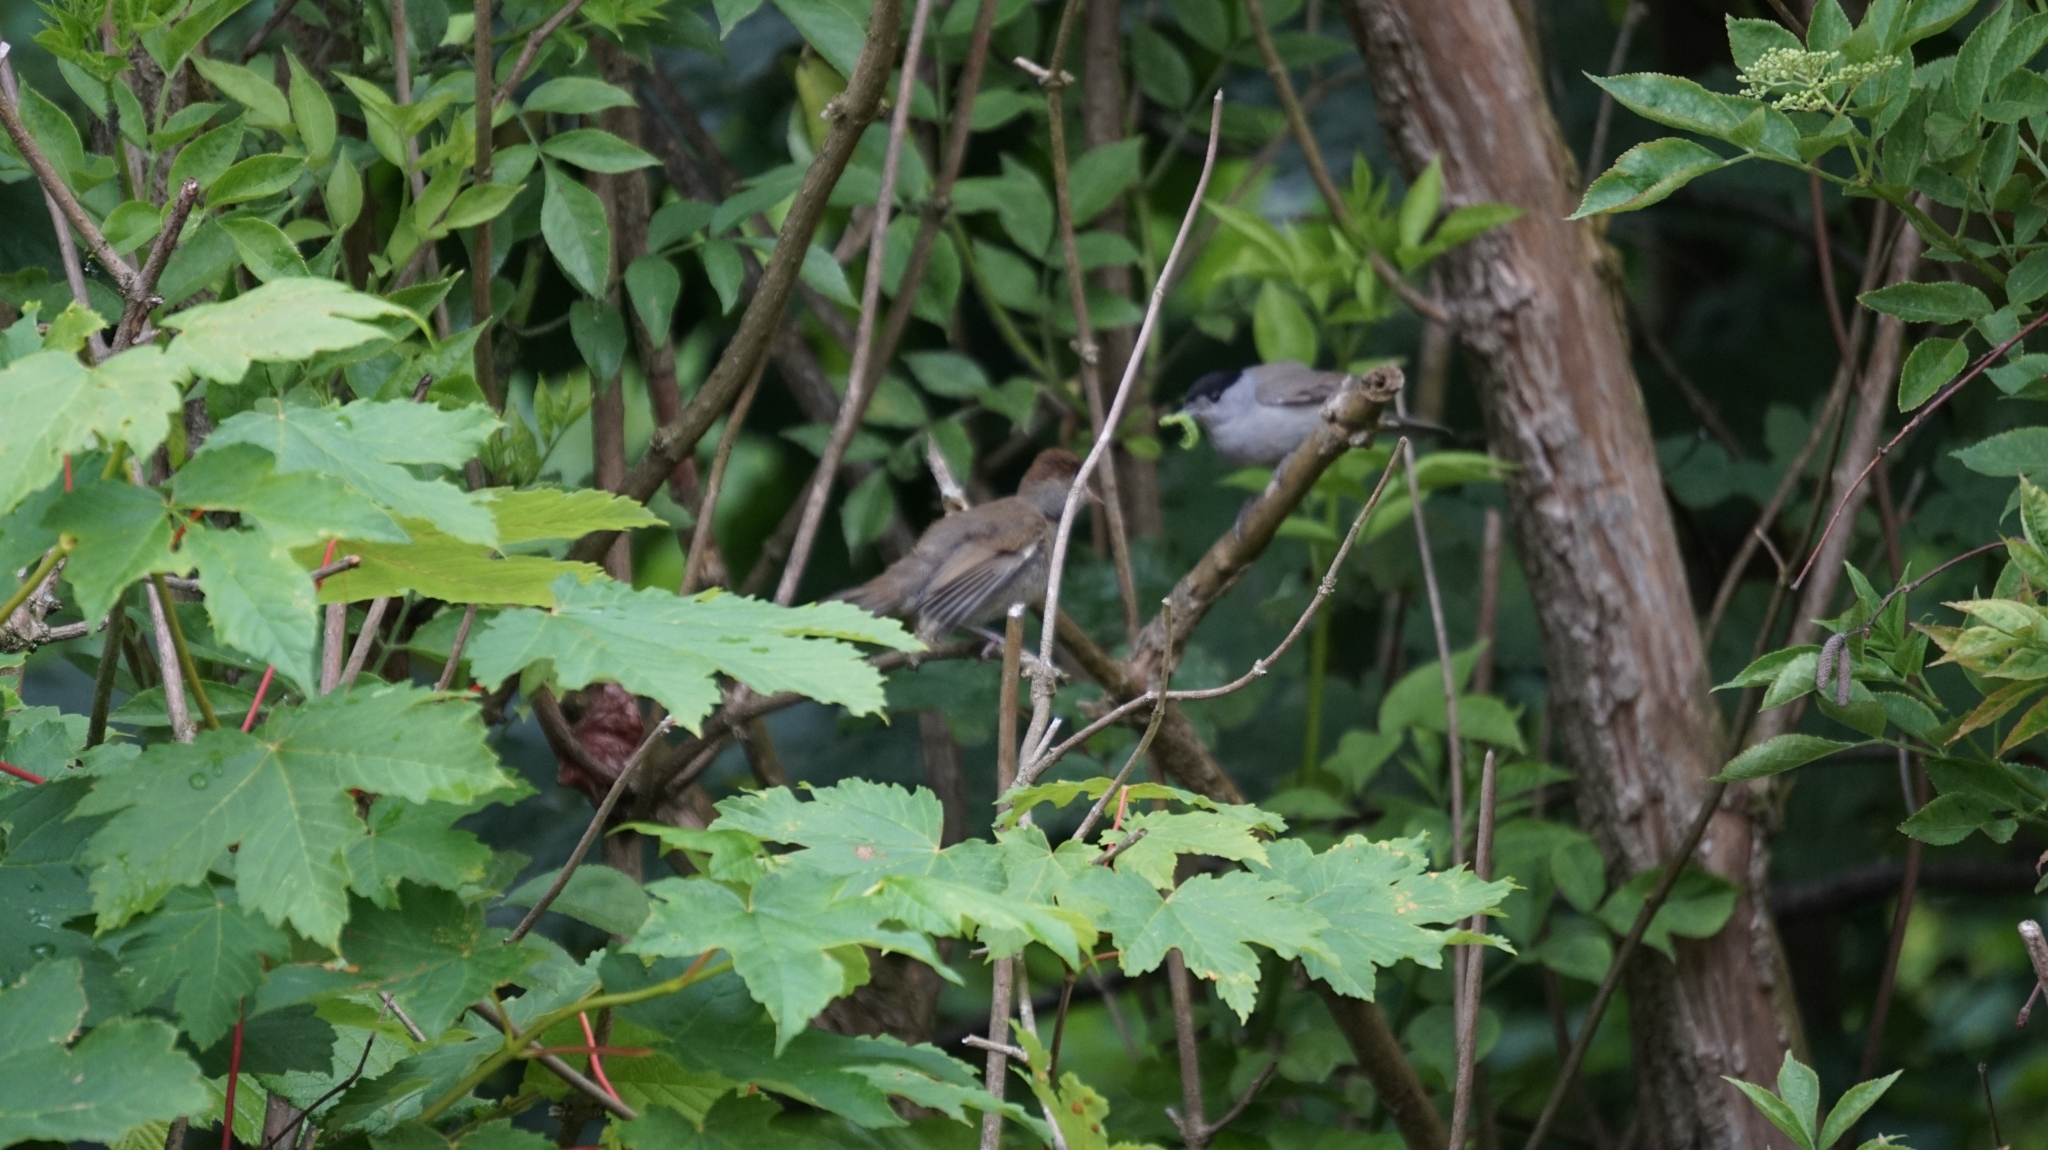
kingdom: Animalia
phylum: Chordata
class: Aves
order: Passeriformes
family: Sylviidae
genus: Sylvia
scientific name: Sylvia atricapilla
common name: Eurasian blackcap
